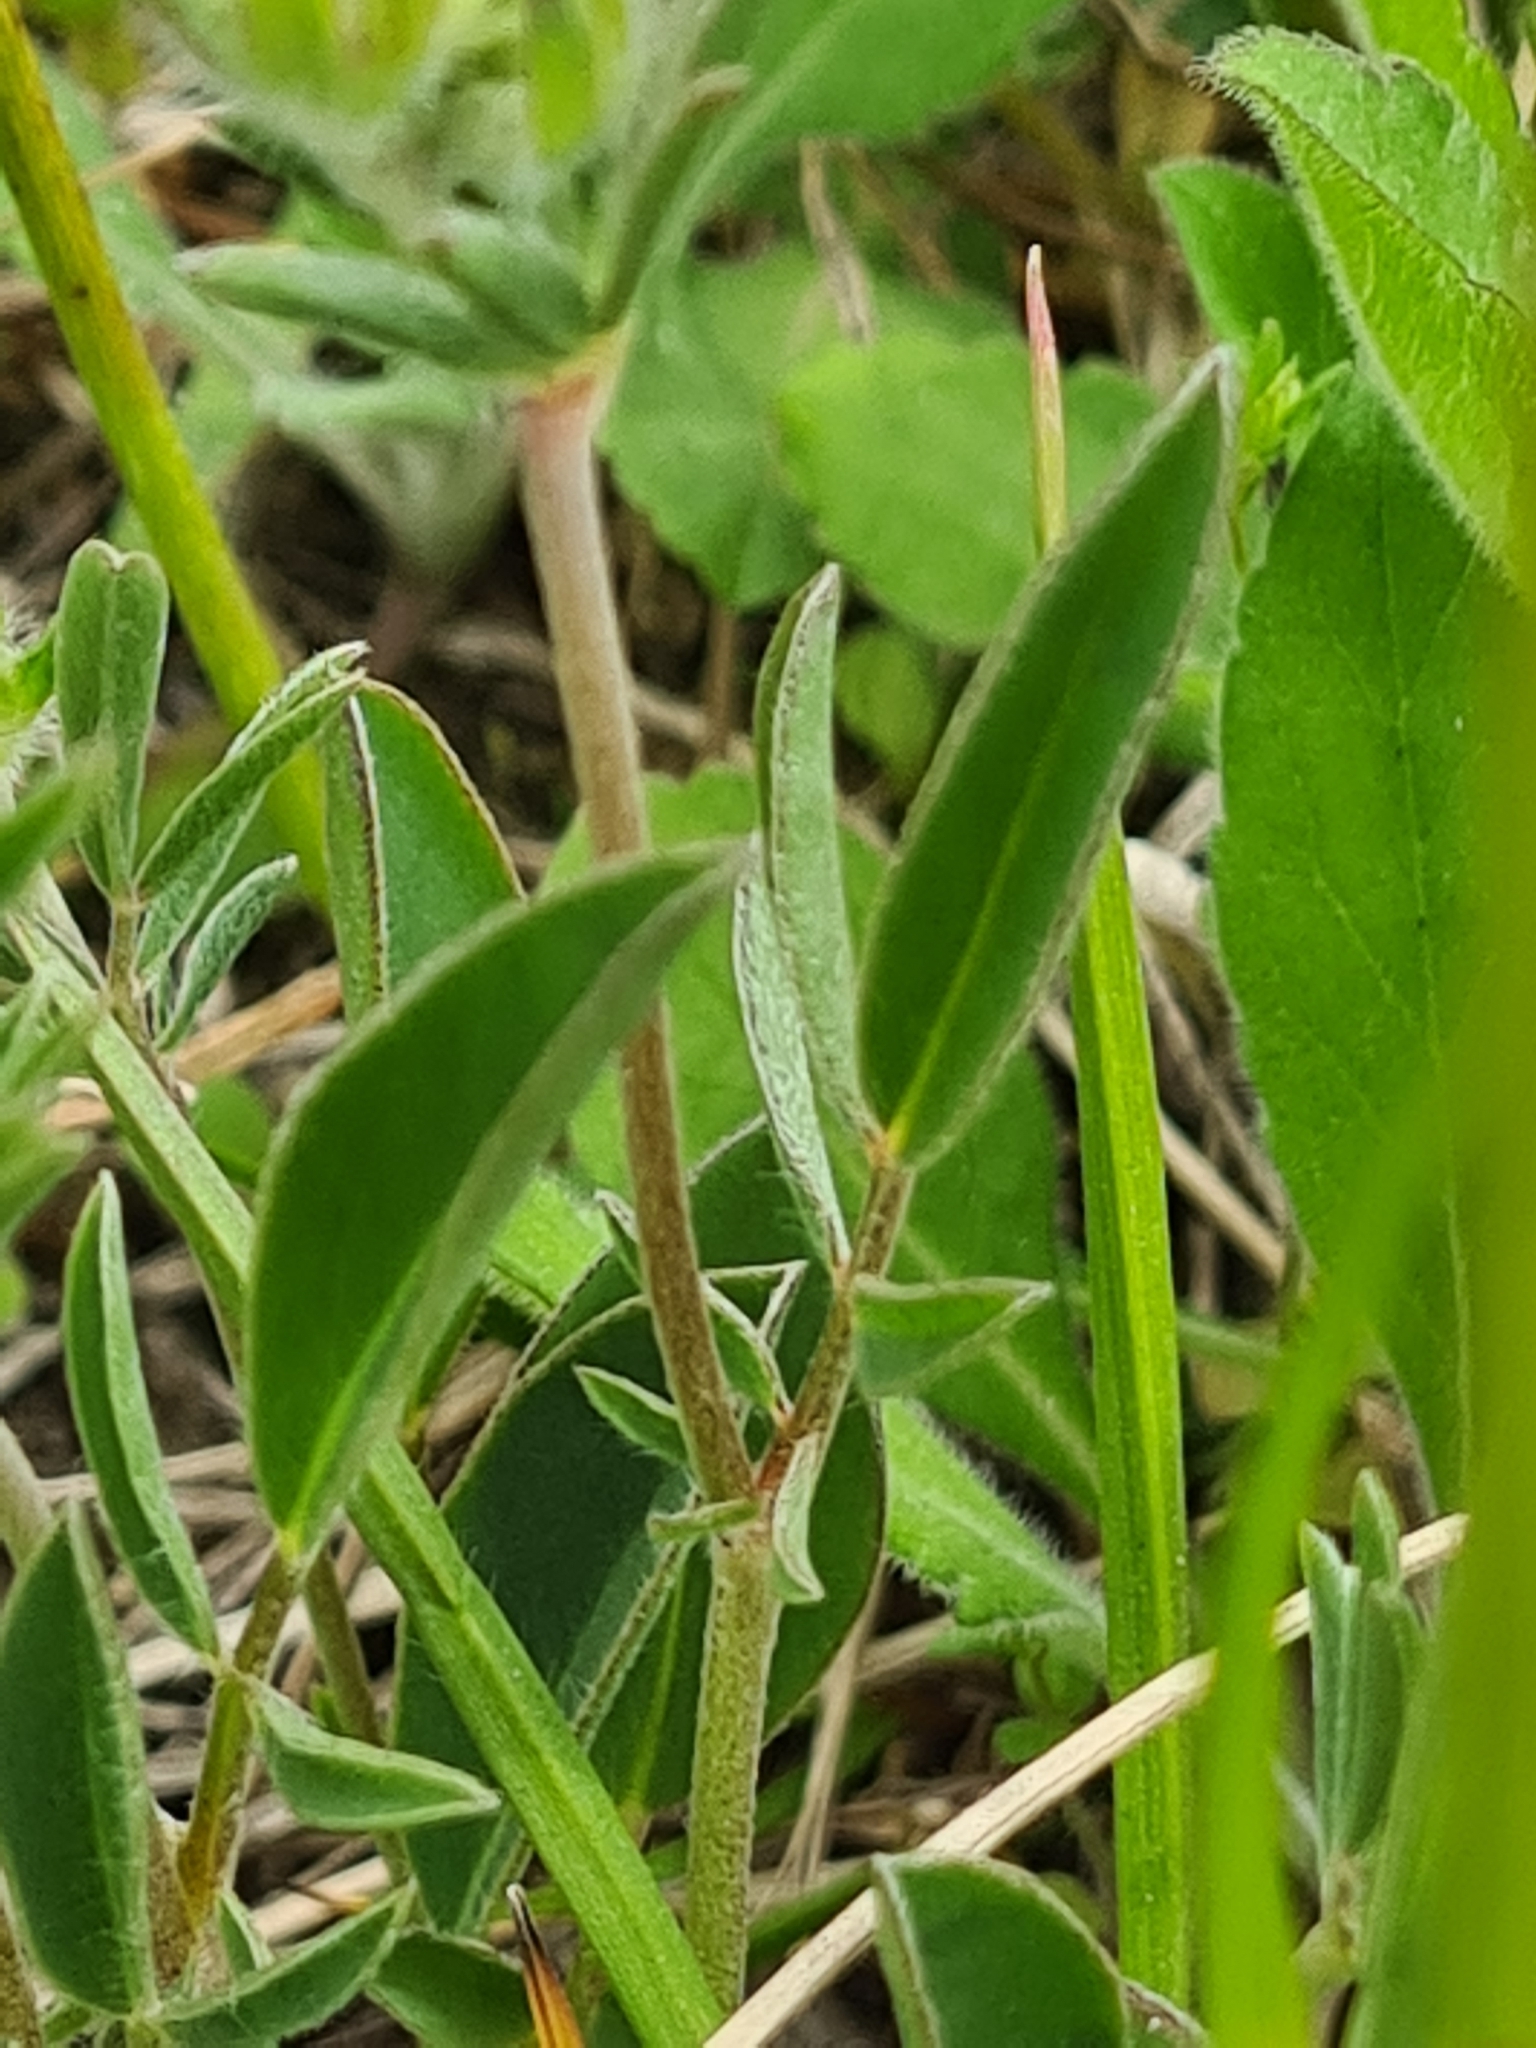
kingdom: Plantae
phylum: Tracheophyta
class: Magnoliopsida
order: Fabales
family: Fabaceae
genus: Anthyllis
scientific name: Anthyllis vulneraria
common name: Kidney vetch
